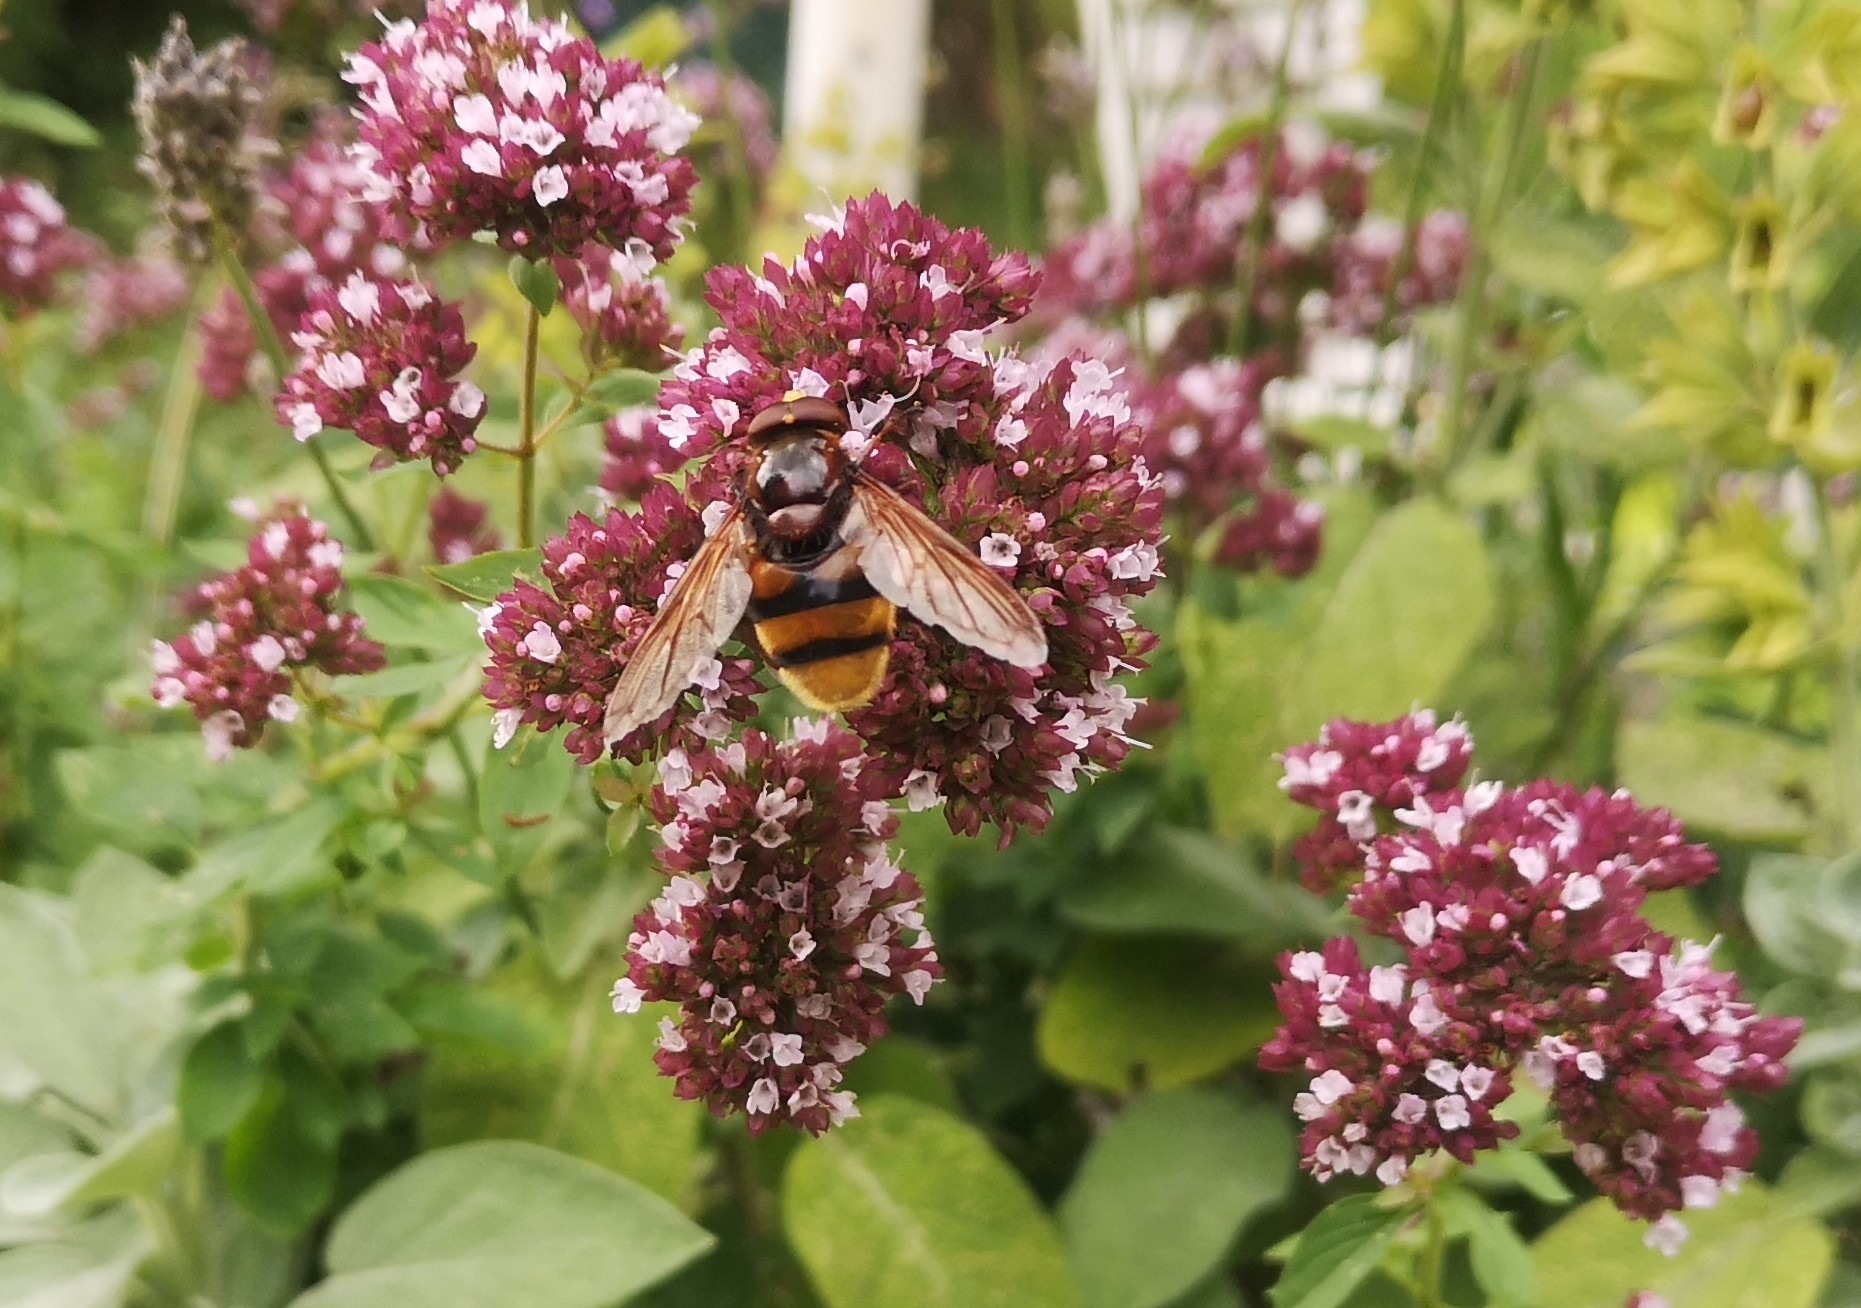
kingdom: Animalia
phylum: Arthropoda
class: Insecta
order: Diptera
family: Syrphidae
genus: Volucella
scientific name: Volucella zonaria
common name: Hornet hoverfly
